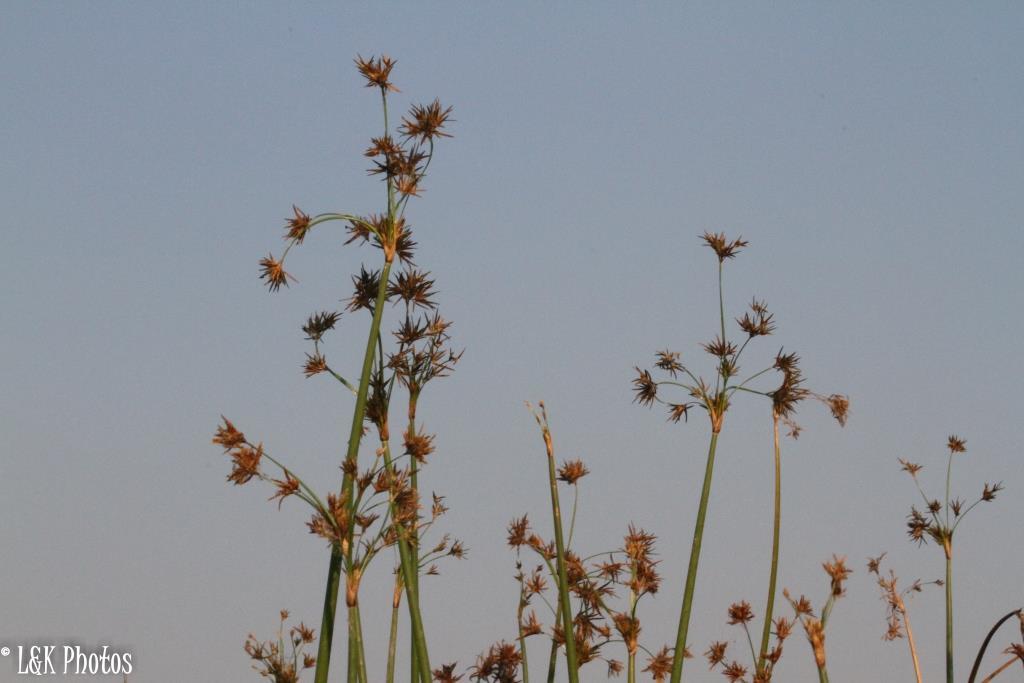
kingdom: Plantae
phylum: Tracheophyta
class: Liliopsida
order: Poales
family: Cyperaceae
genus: Cyperus
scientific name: Cyperus articulatus
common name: Jointed flatsedge
